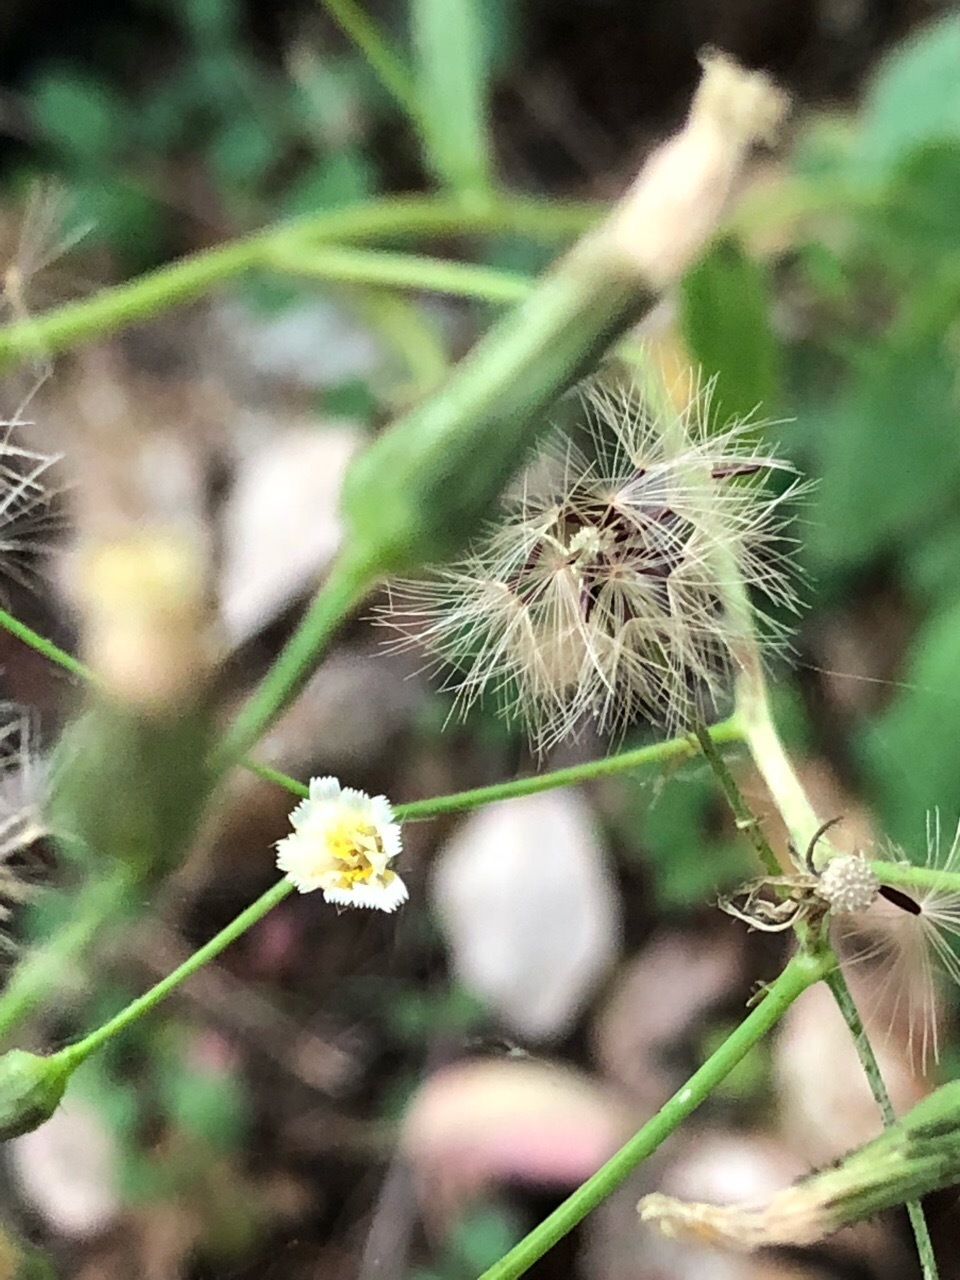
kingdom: Plantae
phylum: Tracheophyta
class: Magnoliopsida
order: Asterales
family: Asteraceae
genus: Hieracium
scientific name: Hieracium albiflorum
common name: White hawkweed
